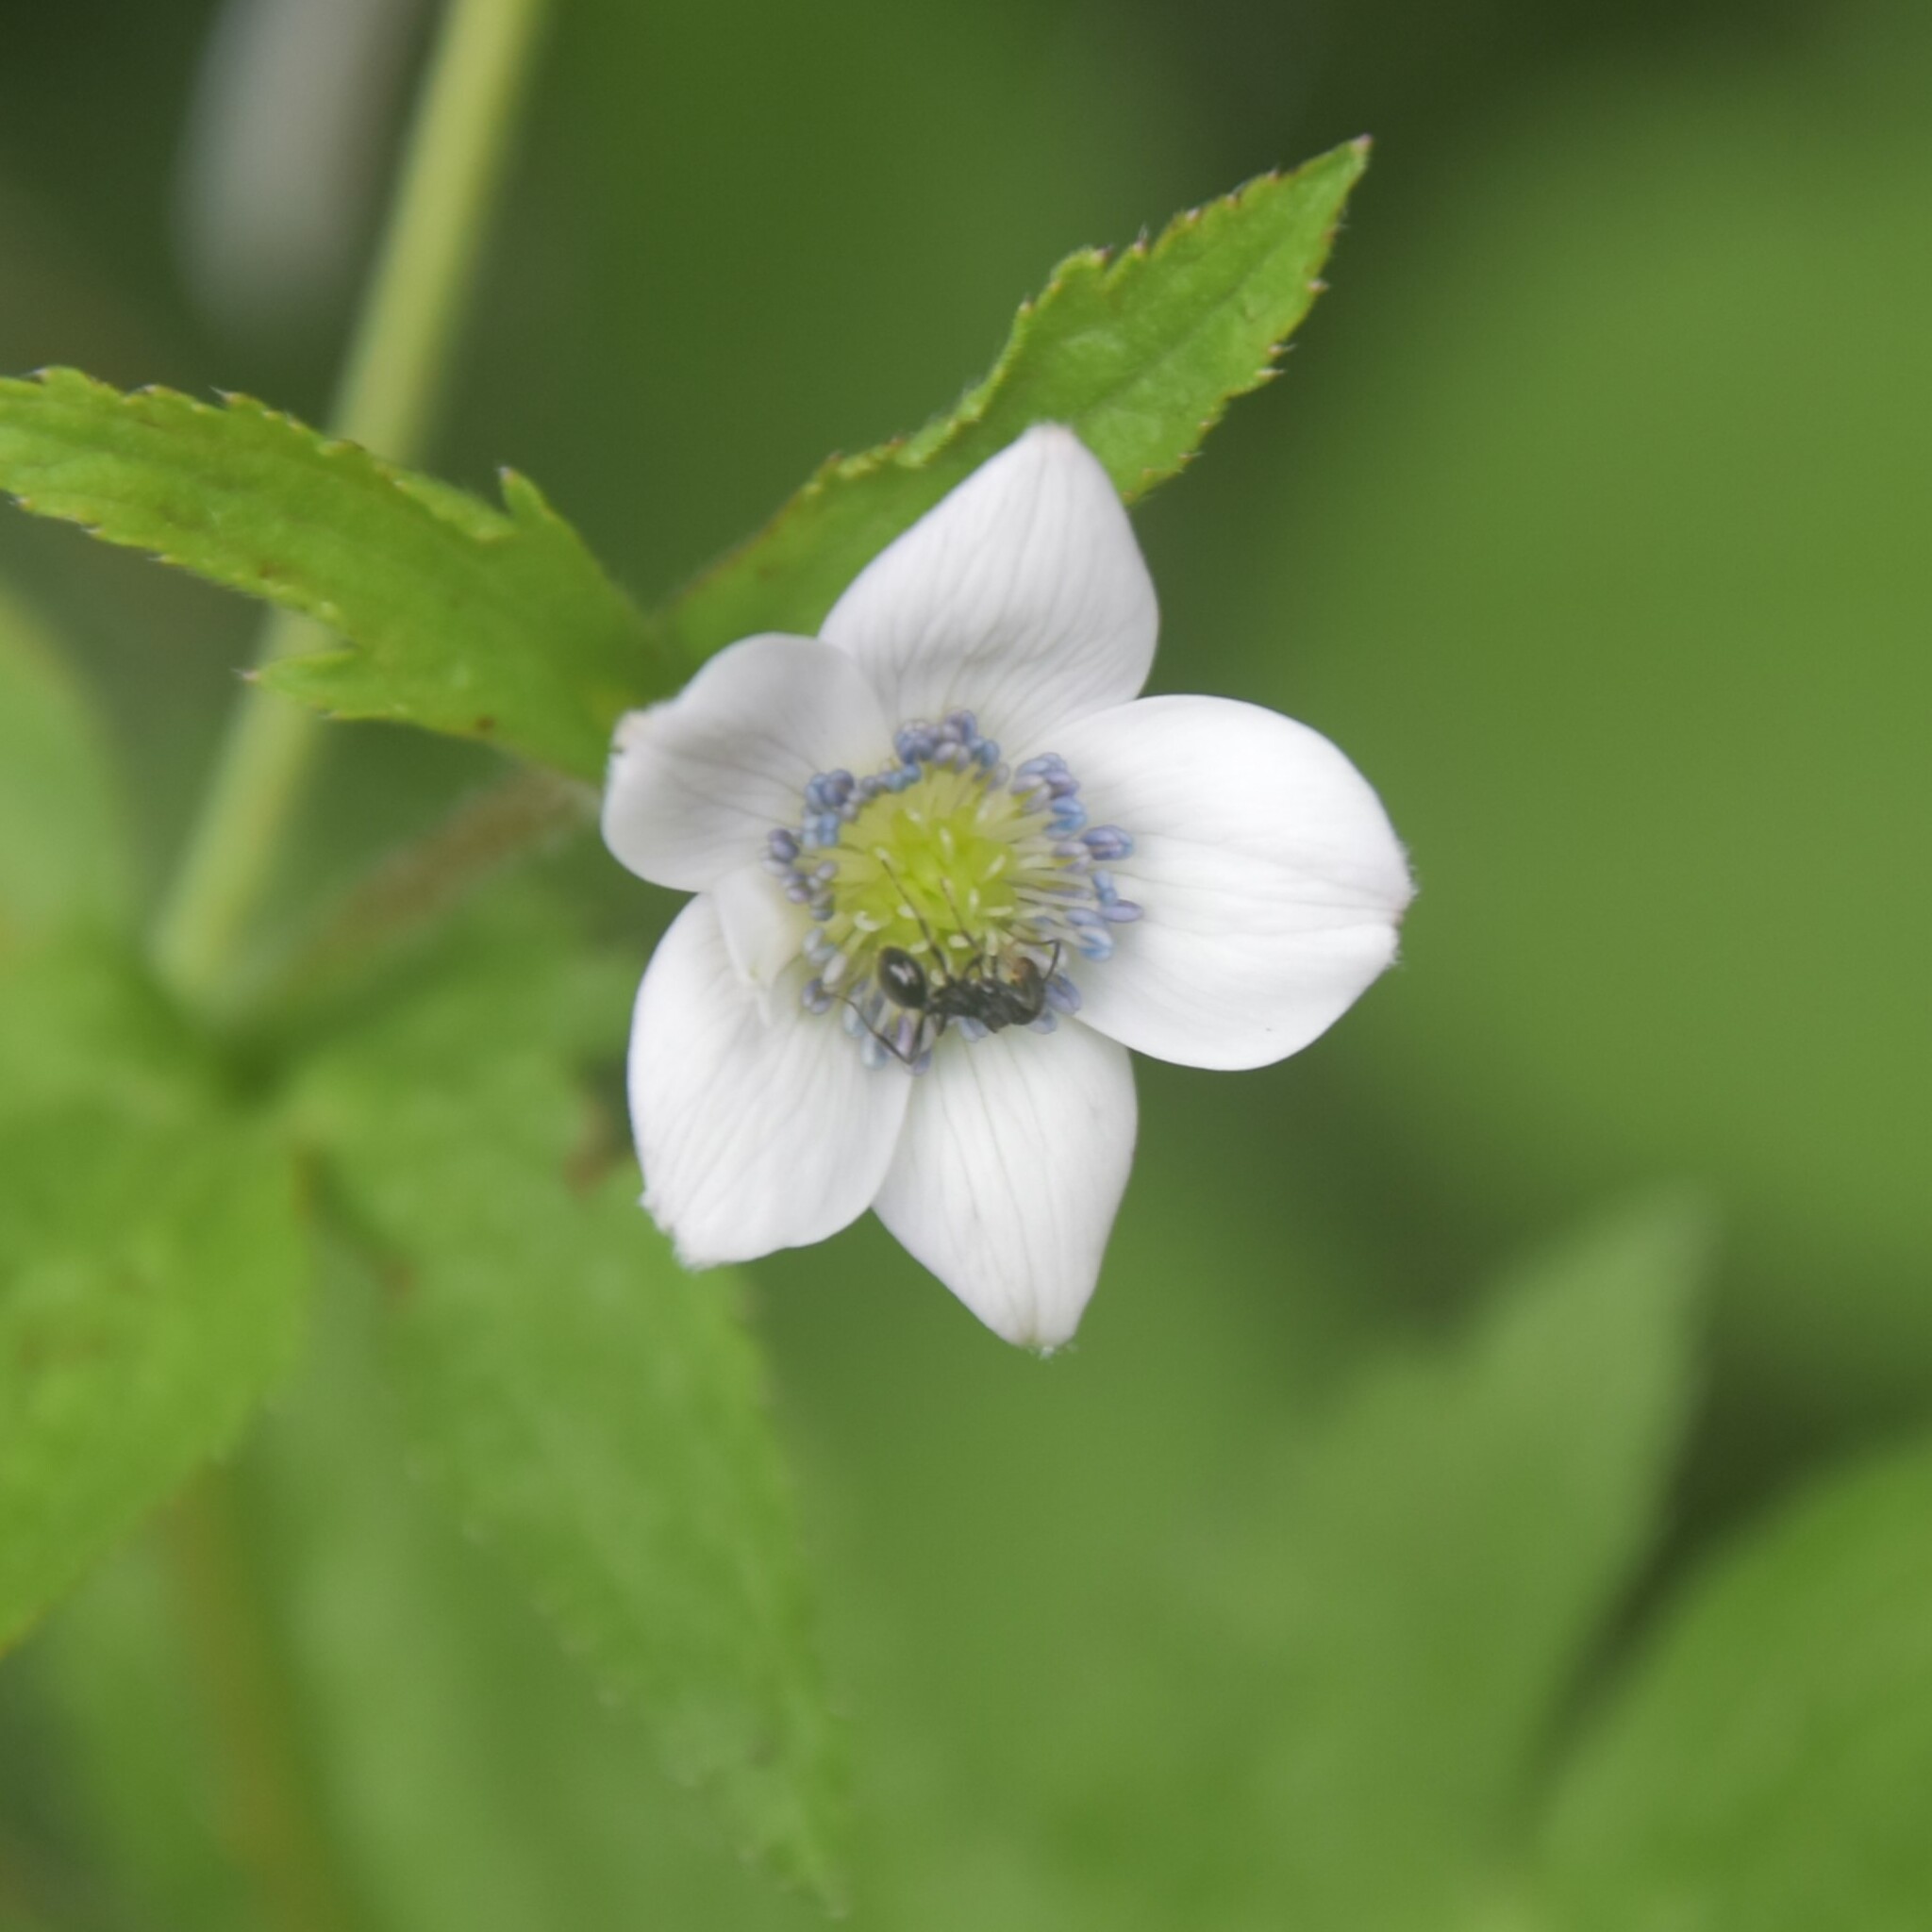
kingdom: Plantae
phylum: Tracheophyta
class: Magnoliopsida
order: Ranunculales
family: Ranunculaceae
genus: Eriocapitella
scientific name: Eriocapitella rivularis
